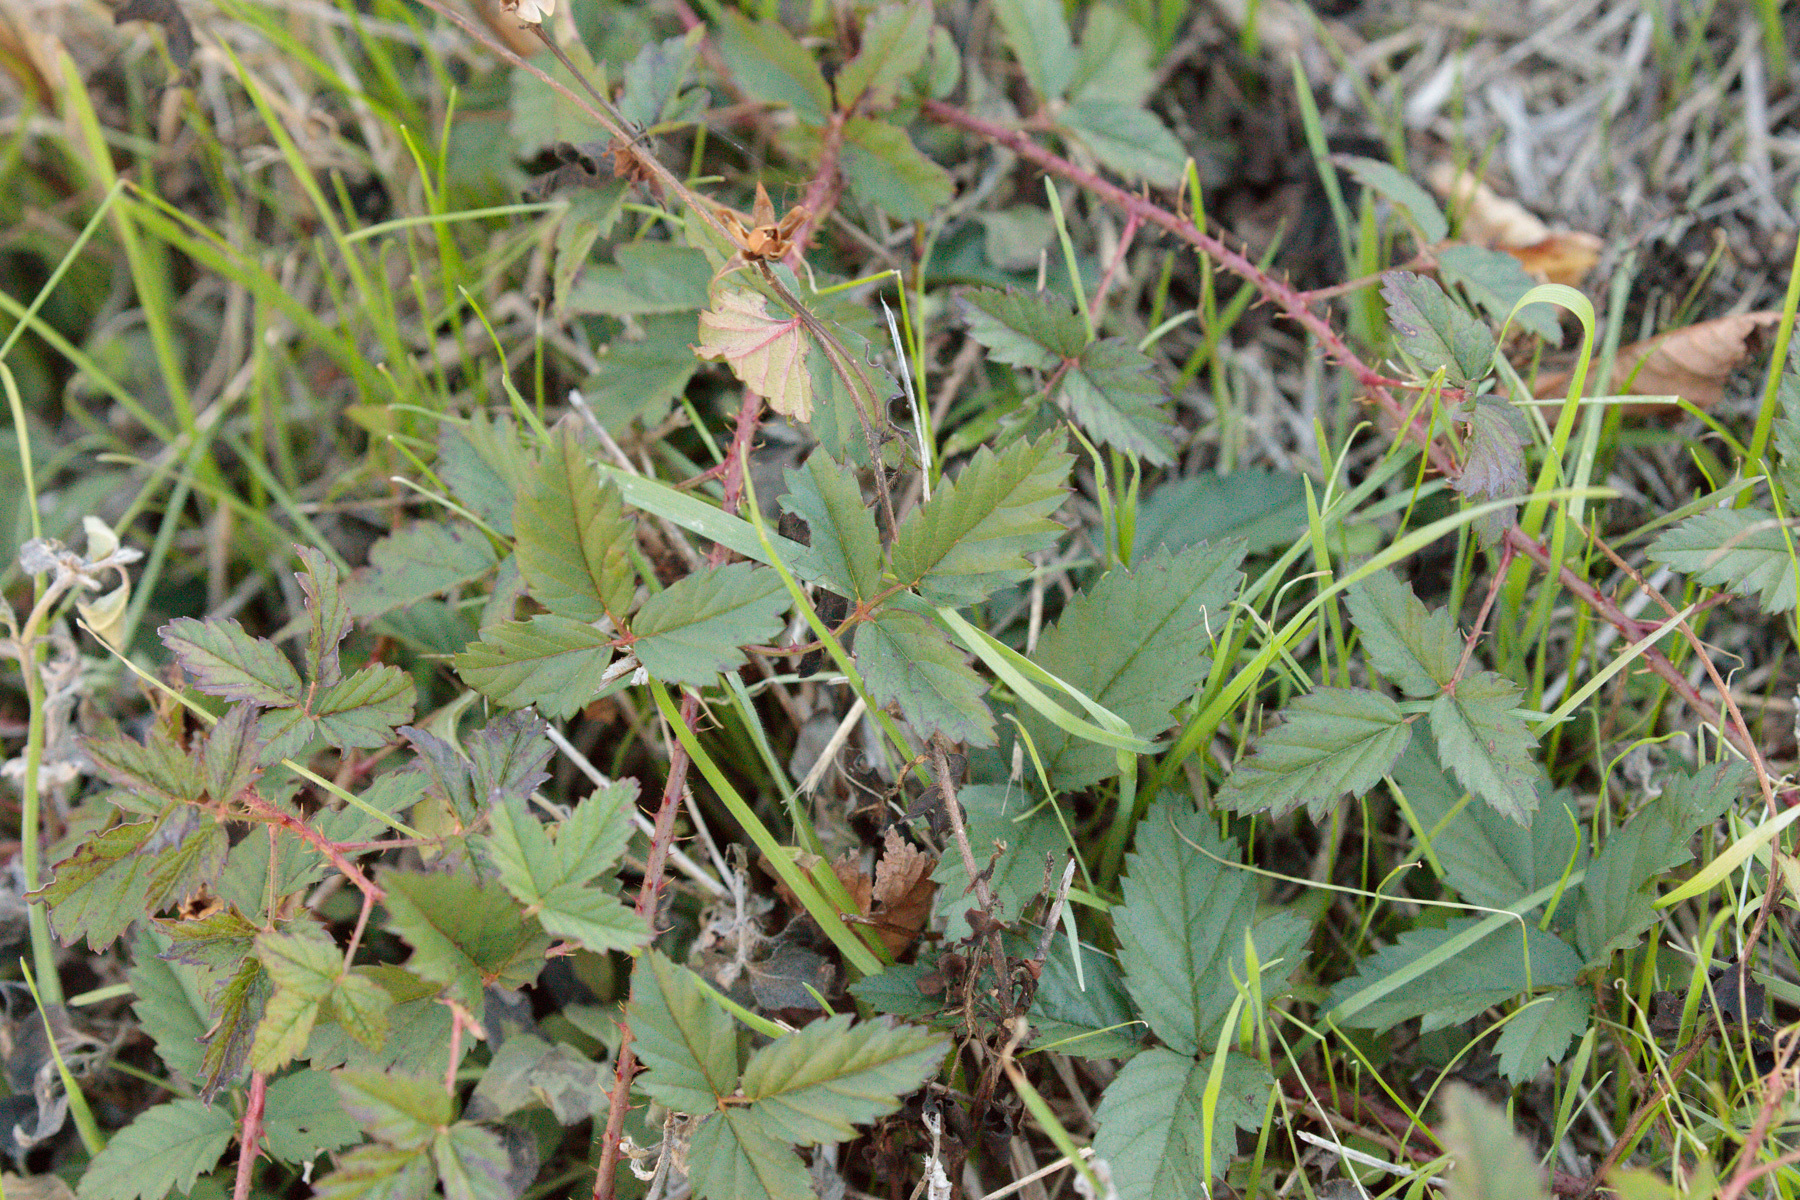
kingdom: Plantae
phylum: Tracheophyta
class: Magnoliopsida
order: Rosales
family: Rosaceae
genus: Rubus
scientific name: Rubus trivialis
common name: Southern dewberry
